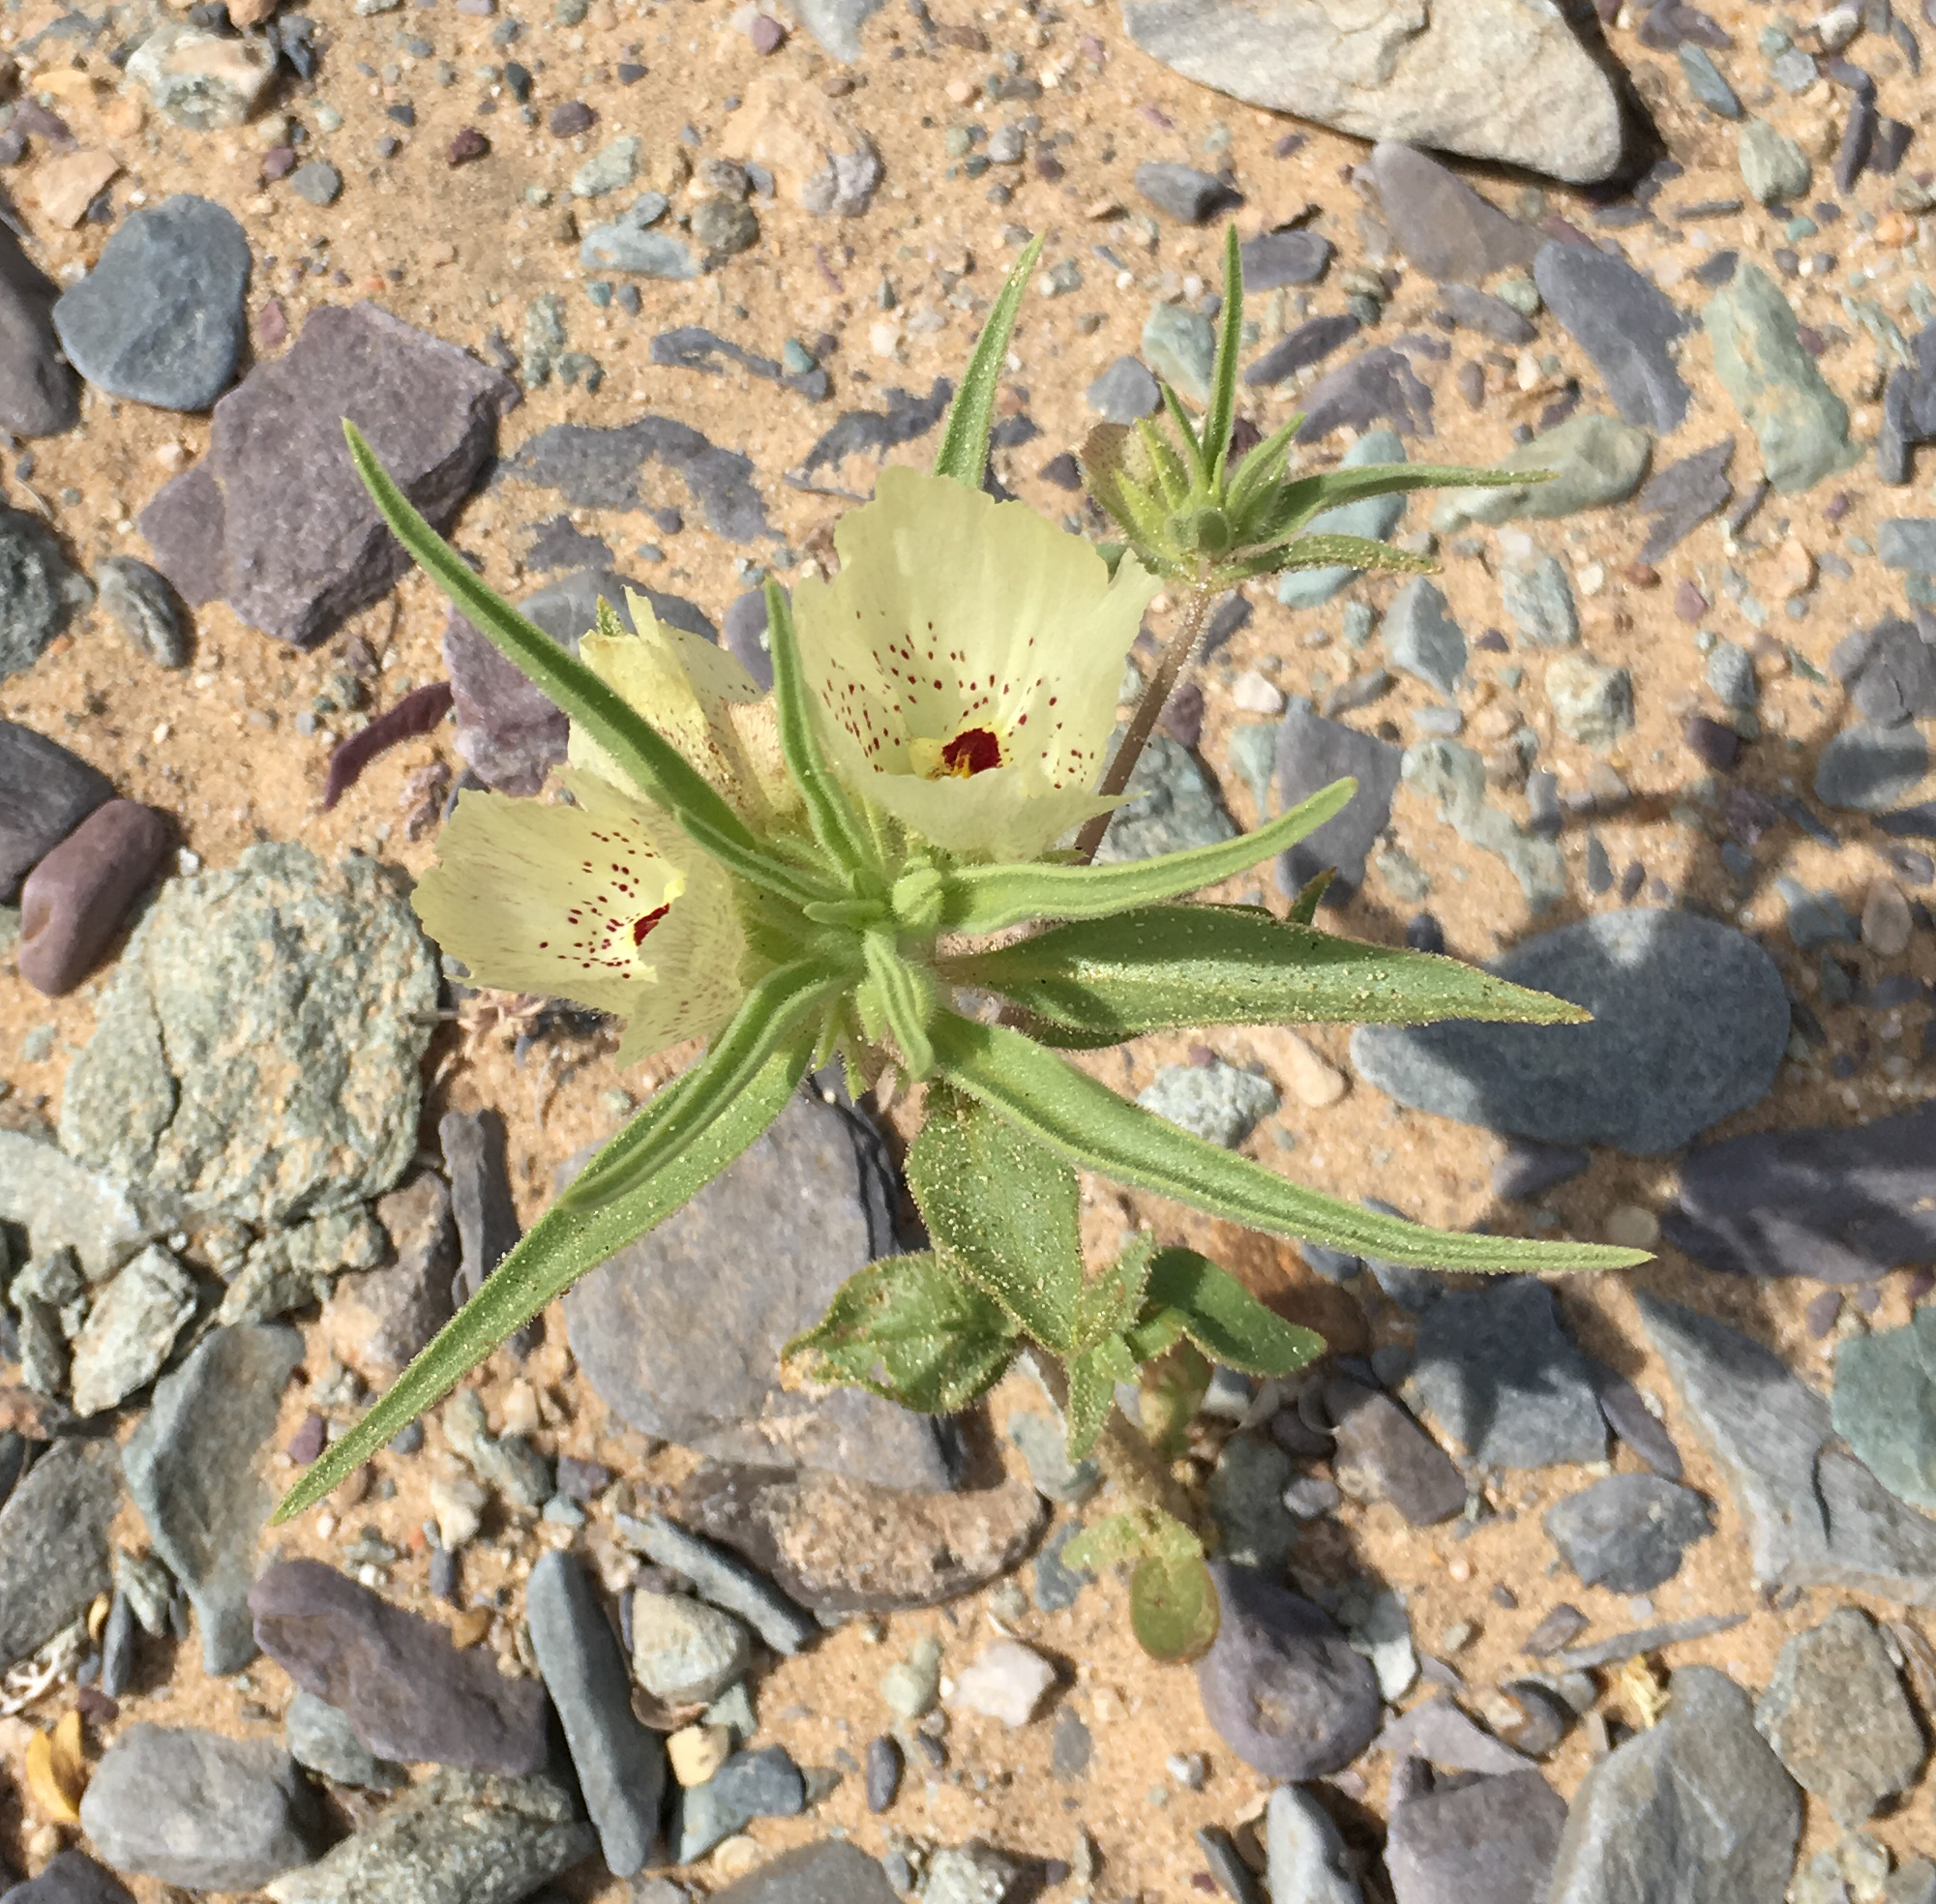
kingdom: Plantae
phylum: Tracheophyta
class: Magnoliopsida
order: Lamiales
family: Plantaginaceae
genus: Mohavea
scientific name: Mohavea confertiflora
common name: Ghost flower
